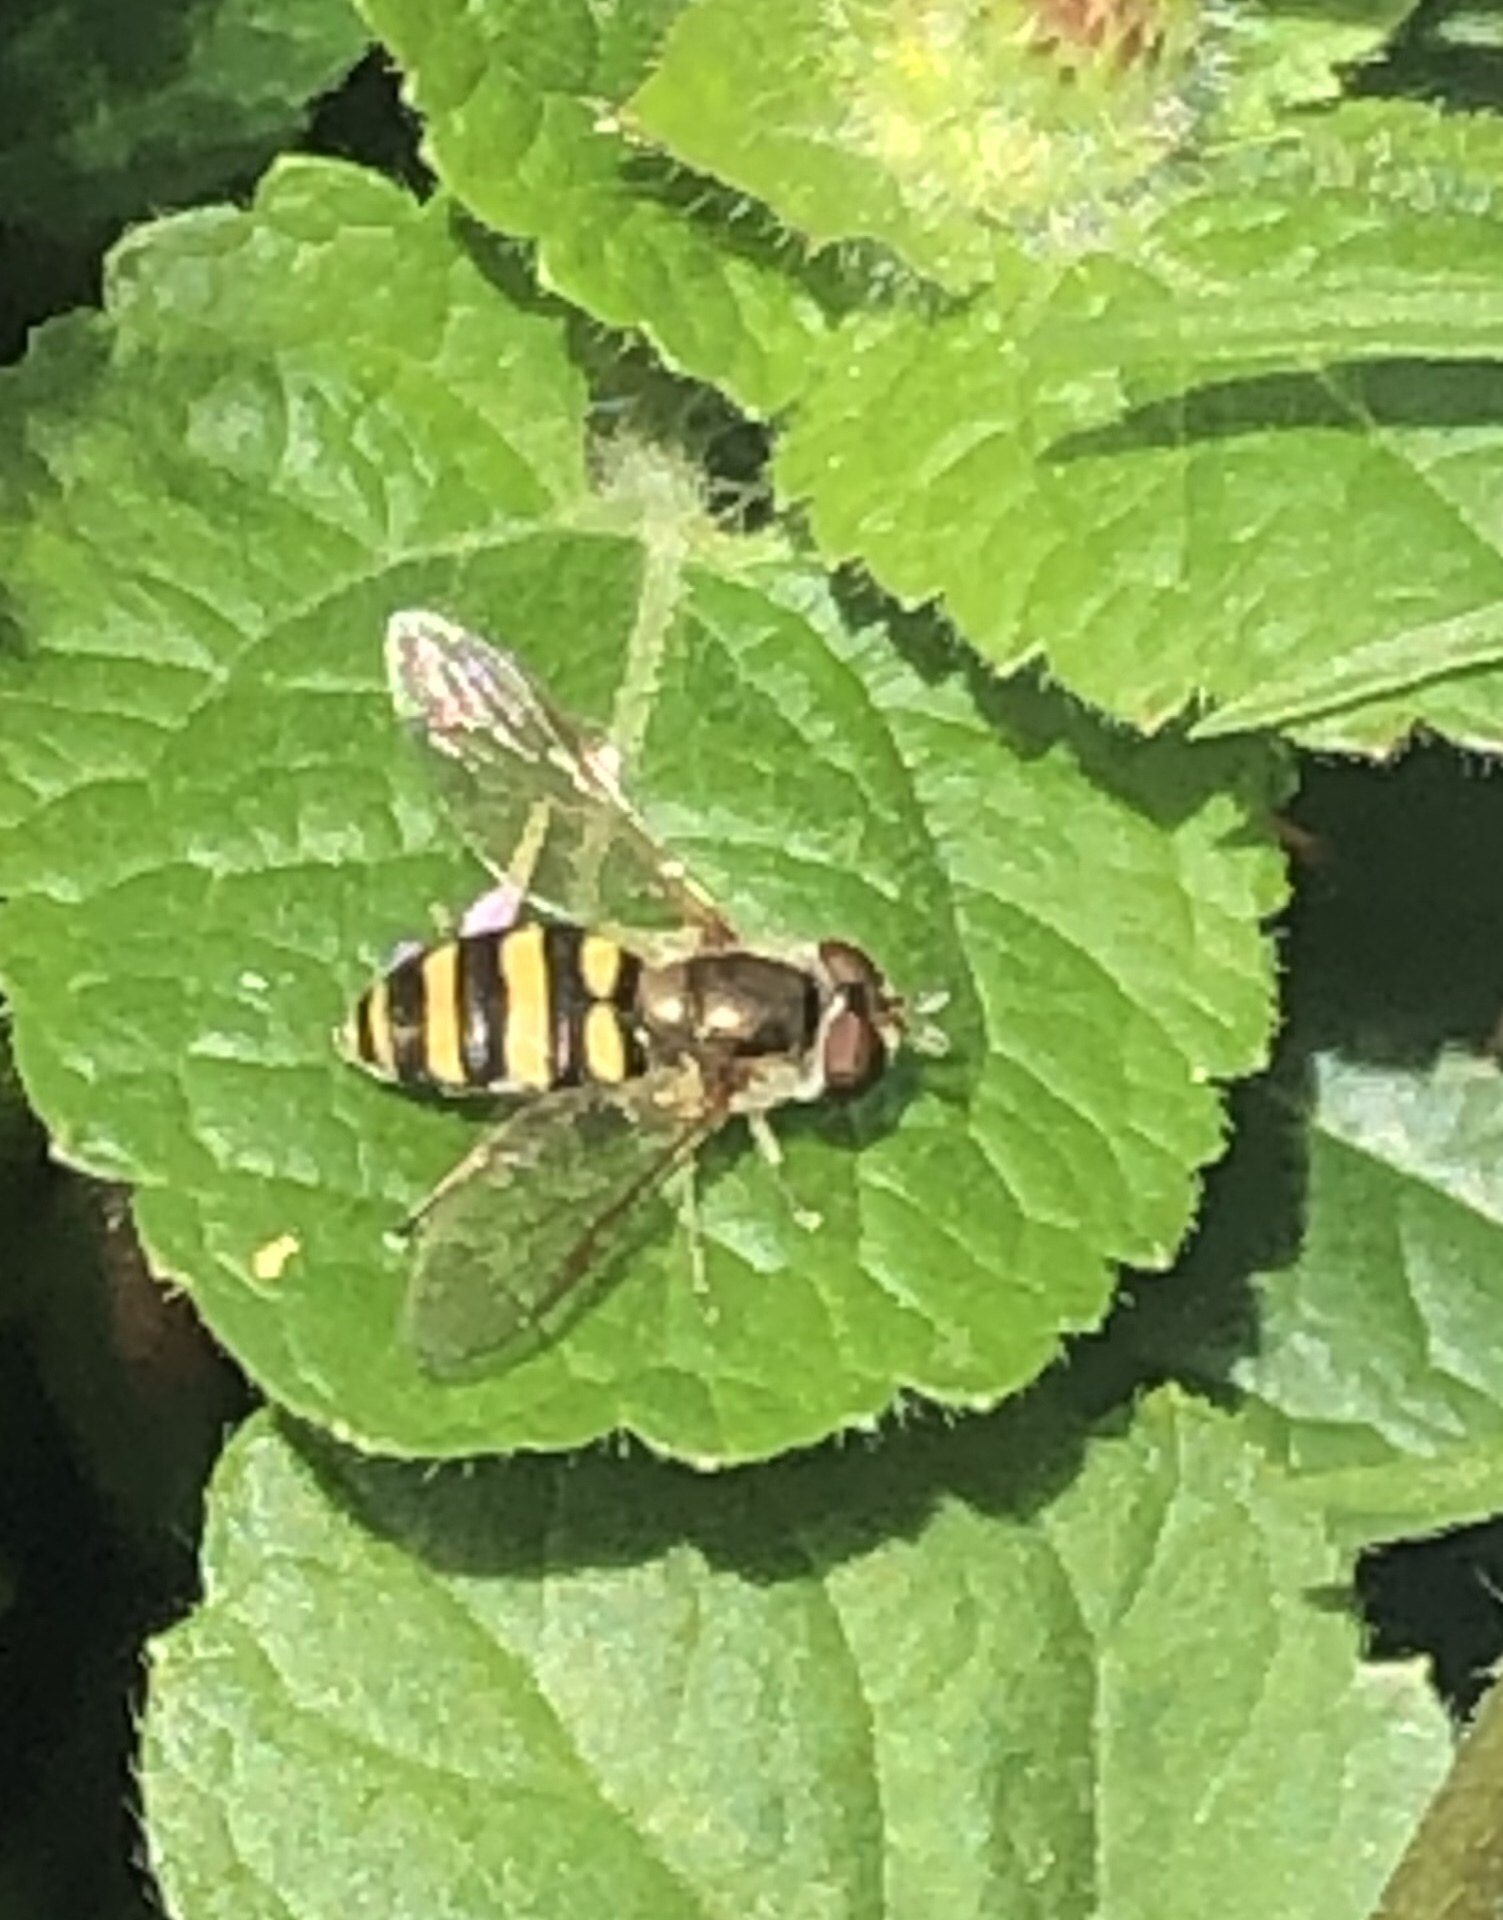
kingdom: Animalia
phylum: Arthropoda
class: Insecta
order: Diptera
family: Syrphidae
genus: Eupeodes
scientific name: Eupeodes
